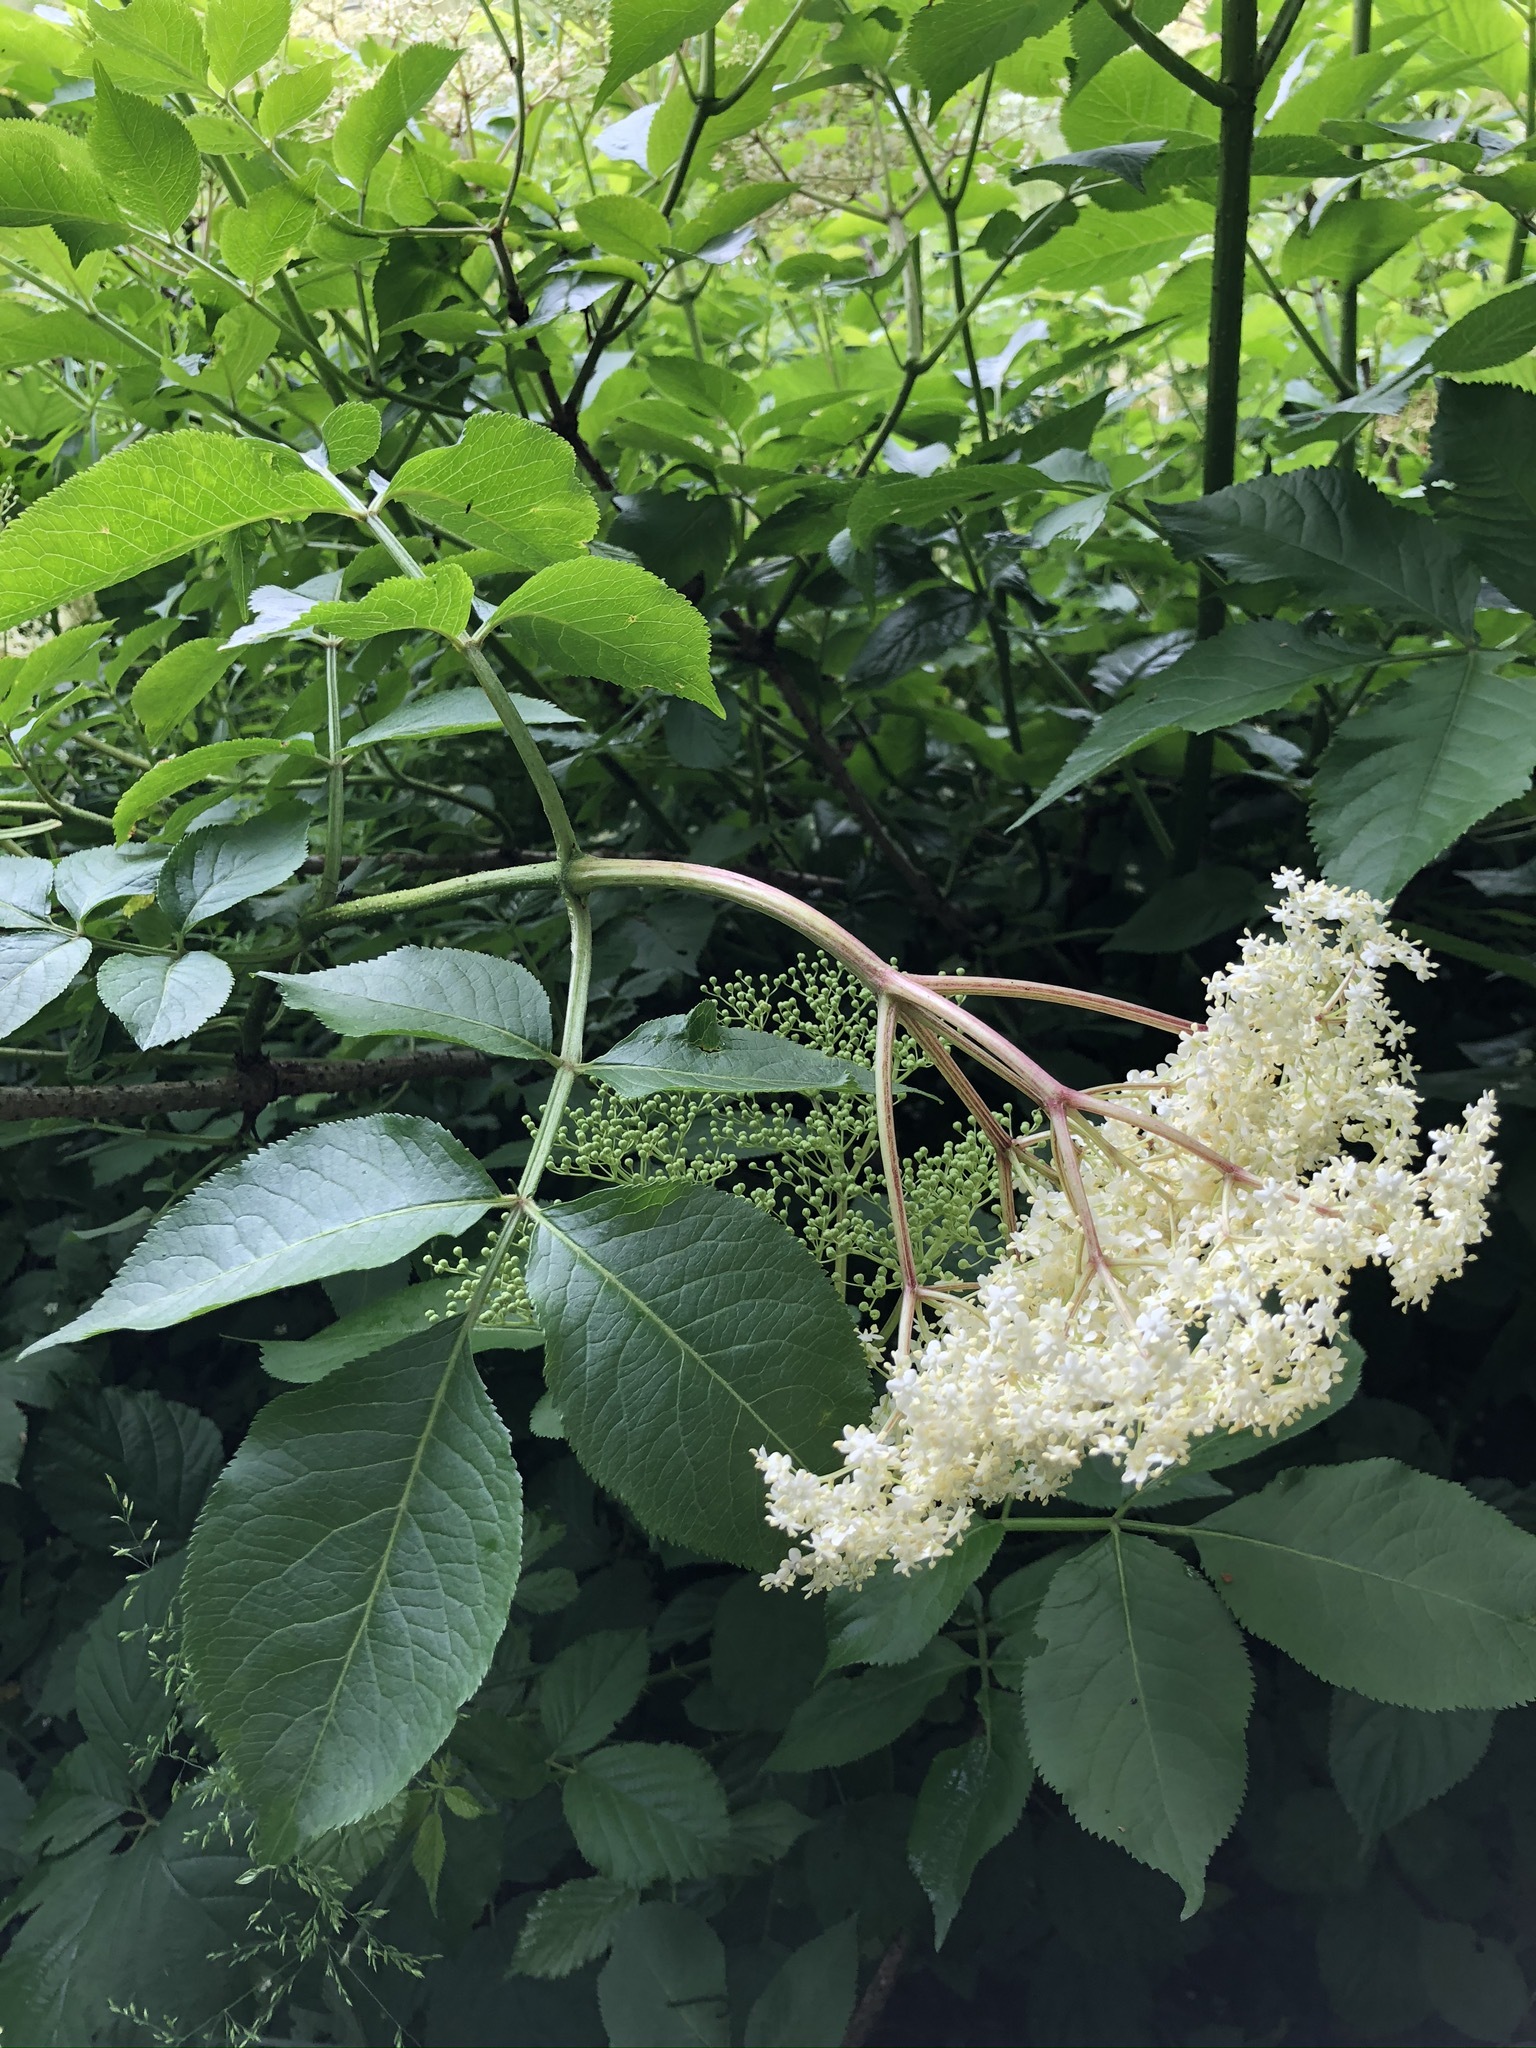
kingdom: Plantae
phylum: Tracheophyta
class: Magnoliopsida
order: Dipsacales
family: Viburnaceae
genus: Sambucus
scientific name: Sambucus nigra
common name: Elder
